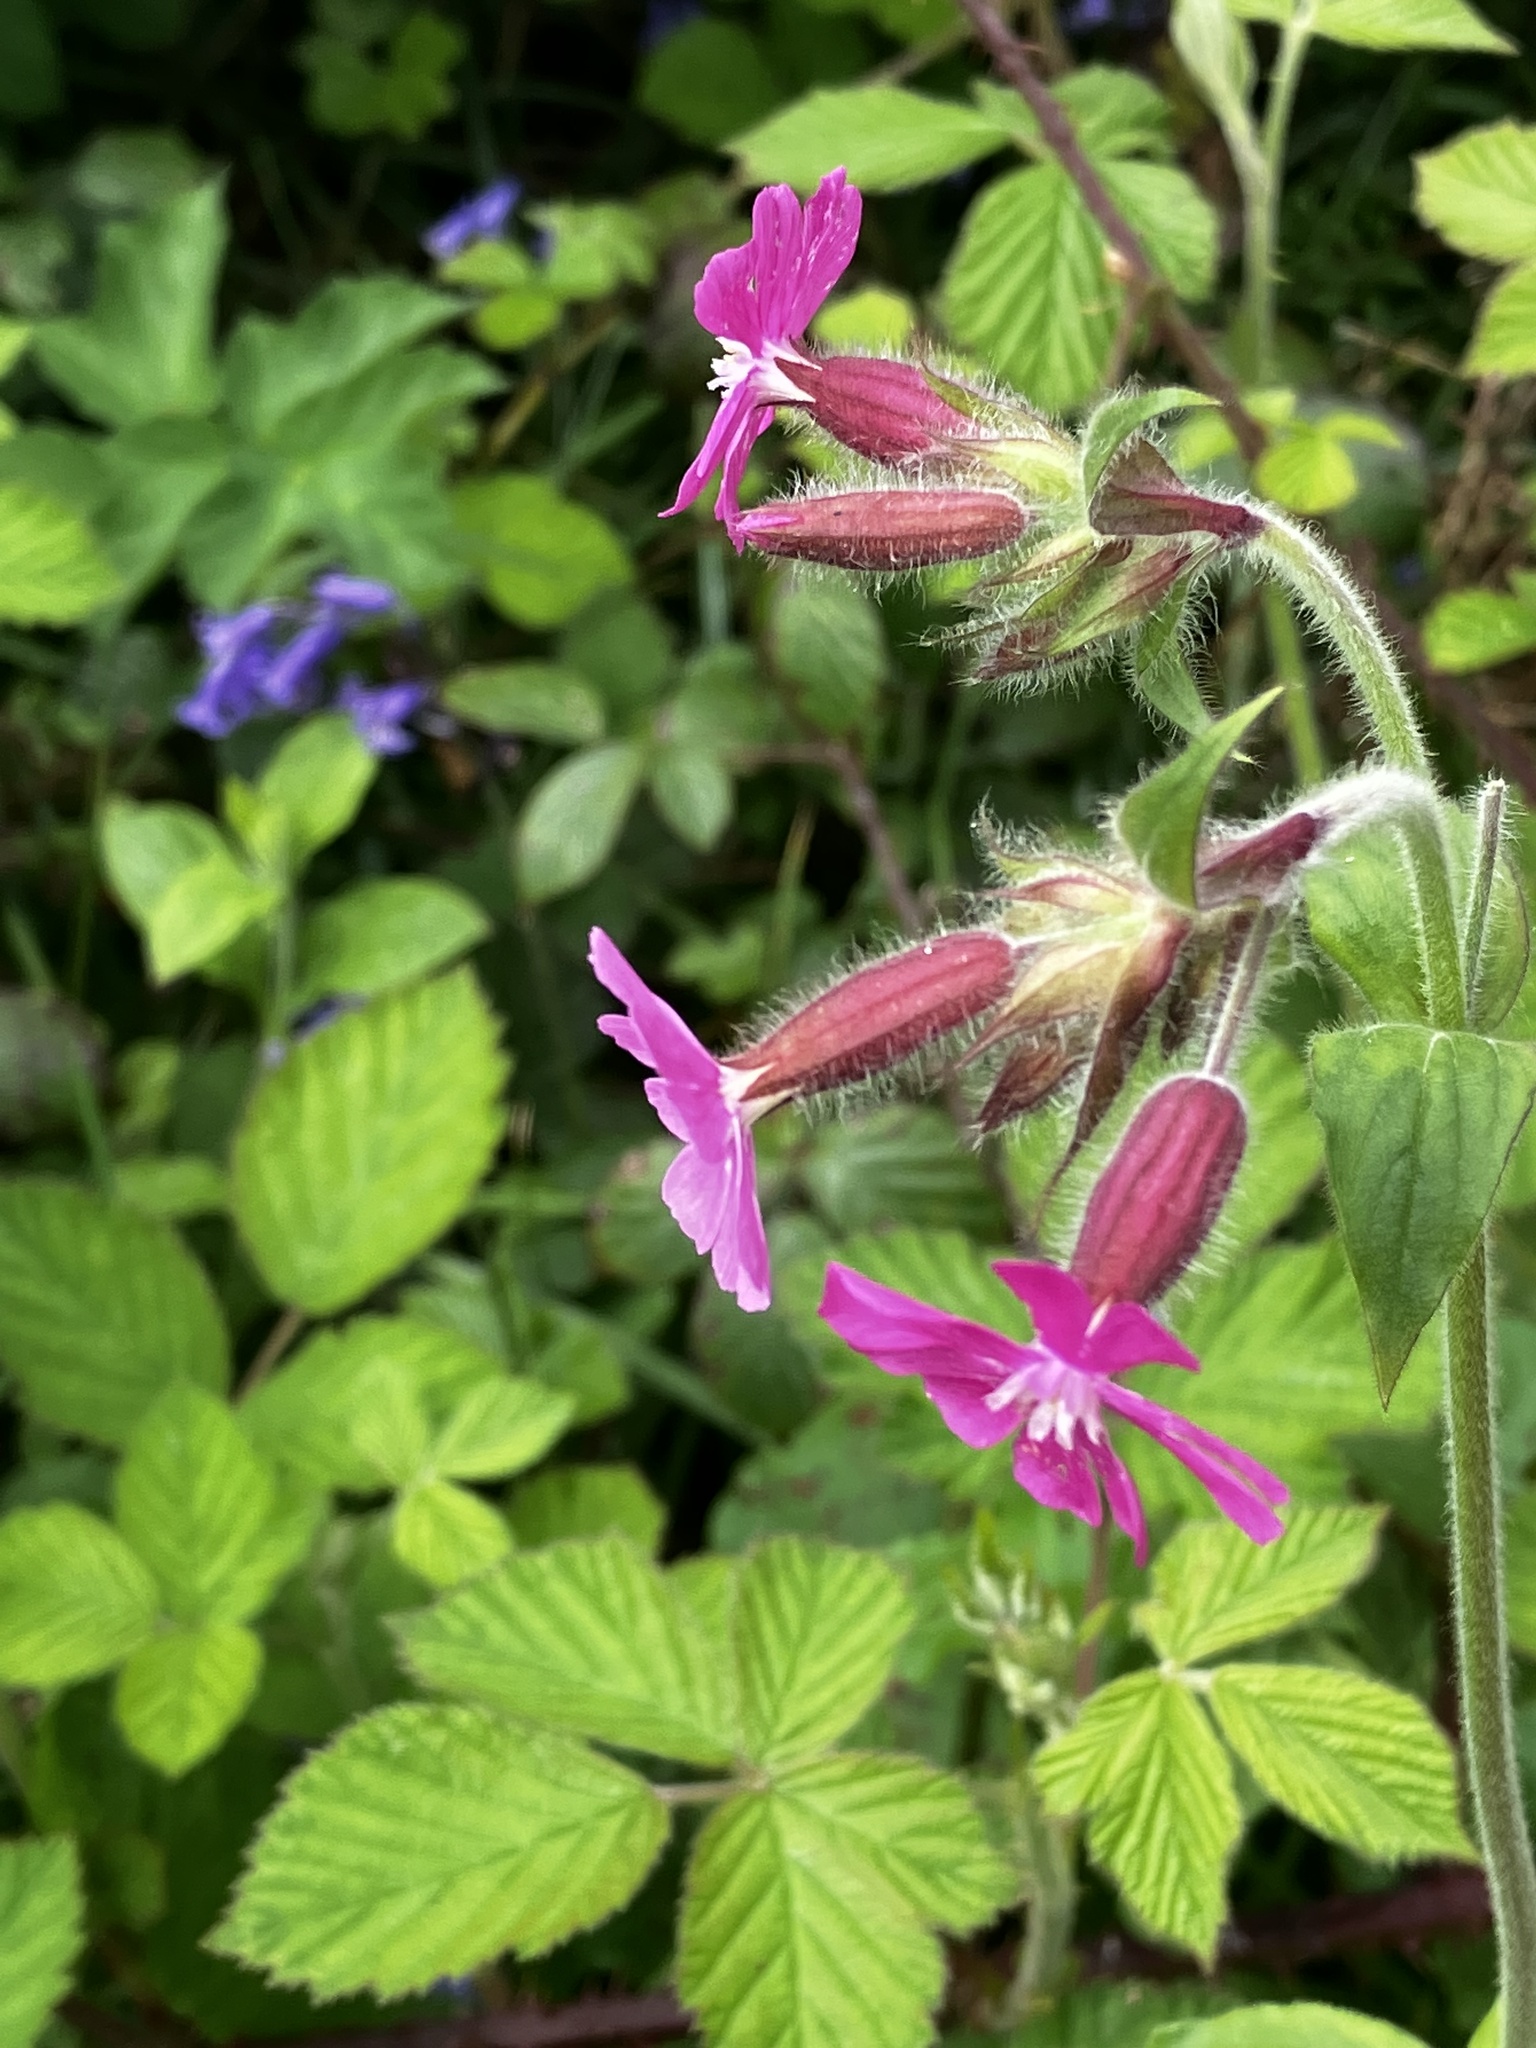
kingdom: Plantae
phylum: Tracheophyta
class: Magnoliopsida
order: Caryophyllales
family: Caryophyllaceae
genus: Silene
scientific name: Silene dioica
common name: Red campion
